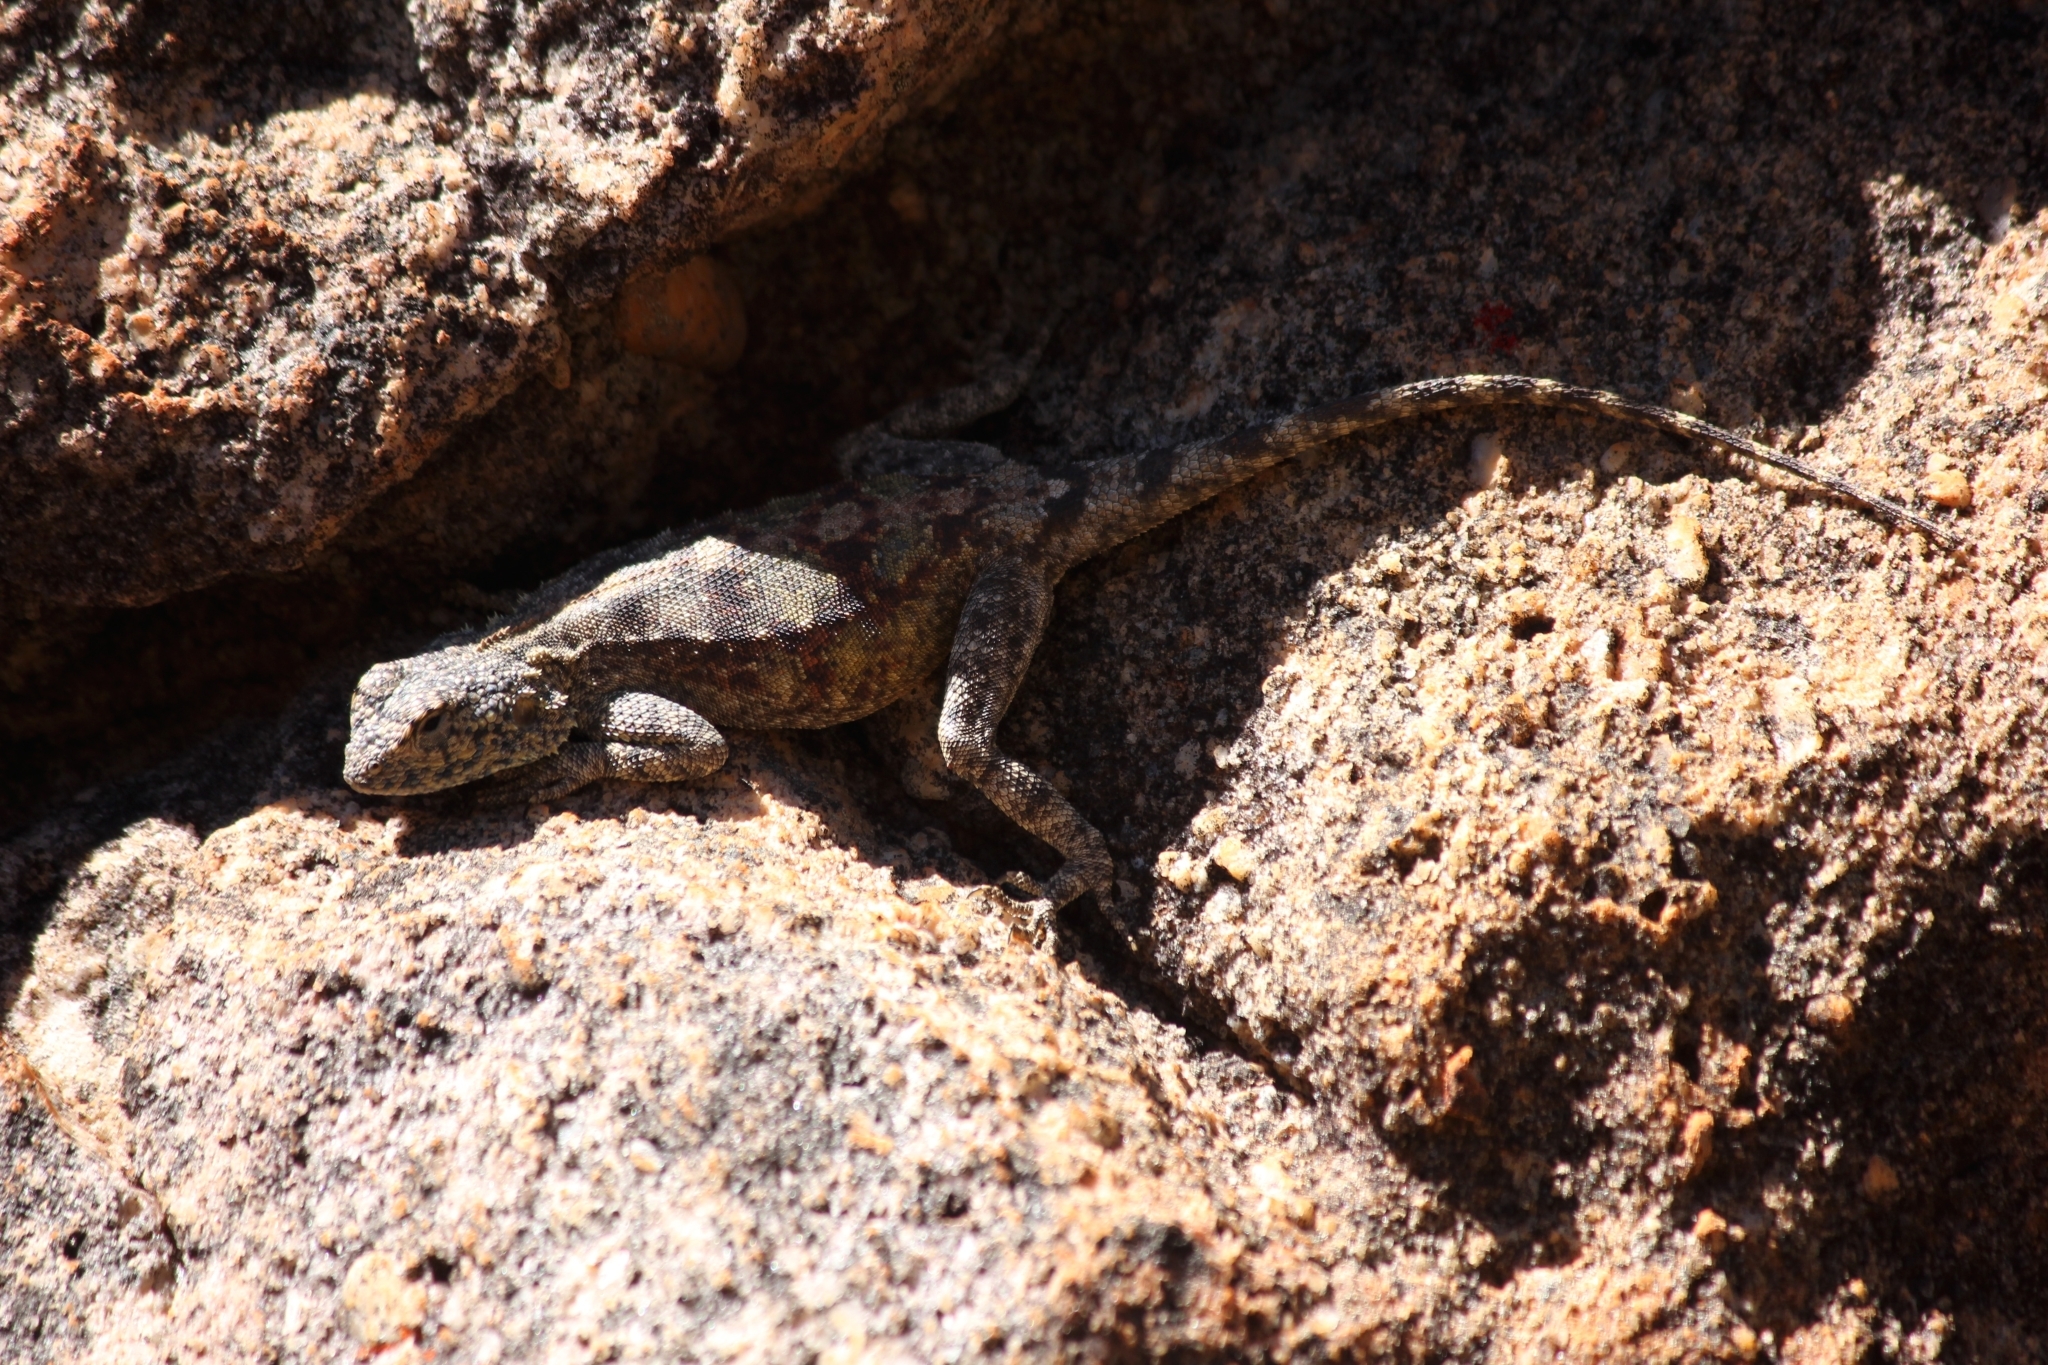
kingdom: Animalia
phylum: Chordata
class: Squamata
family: Agamidae
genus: Agama
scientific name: Agama atra
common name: Southern african rock agama
